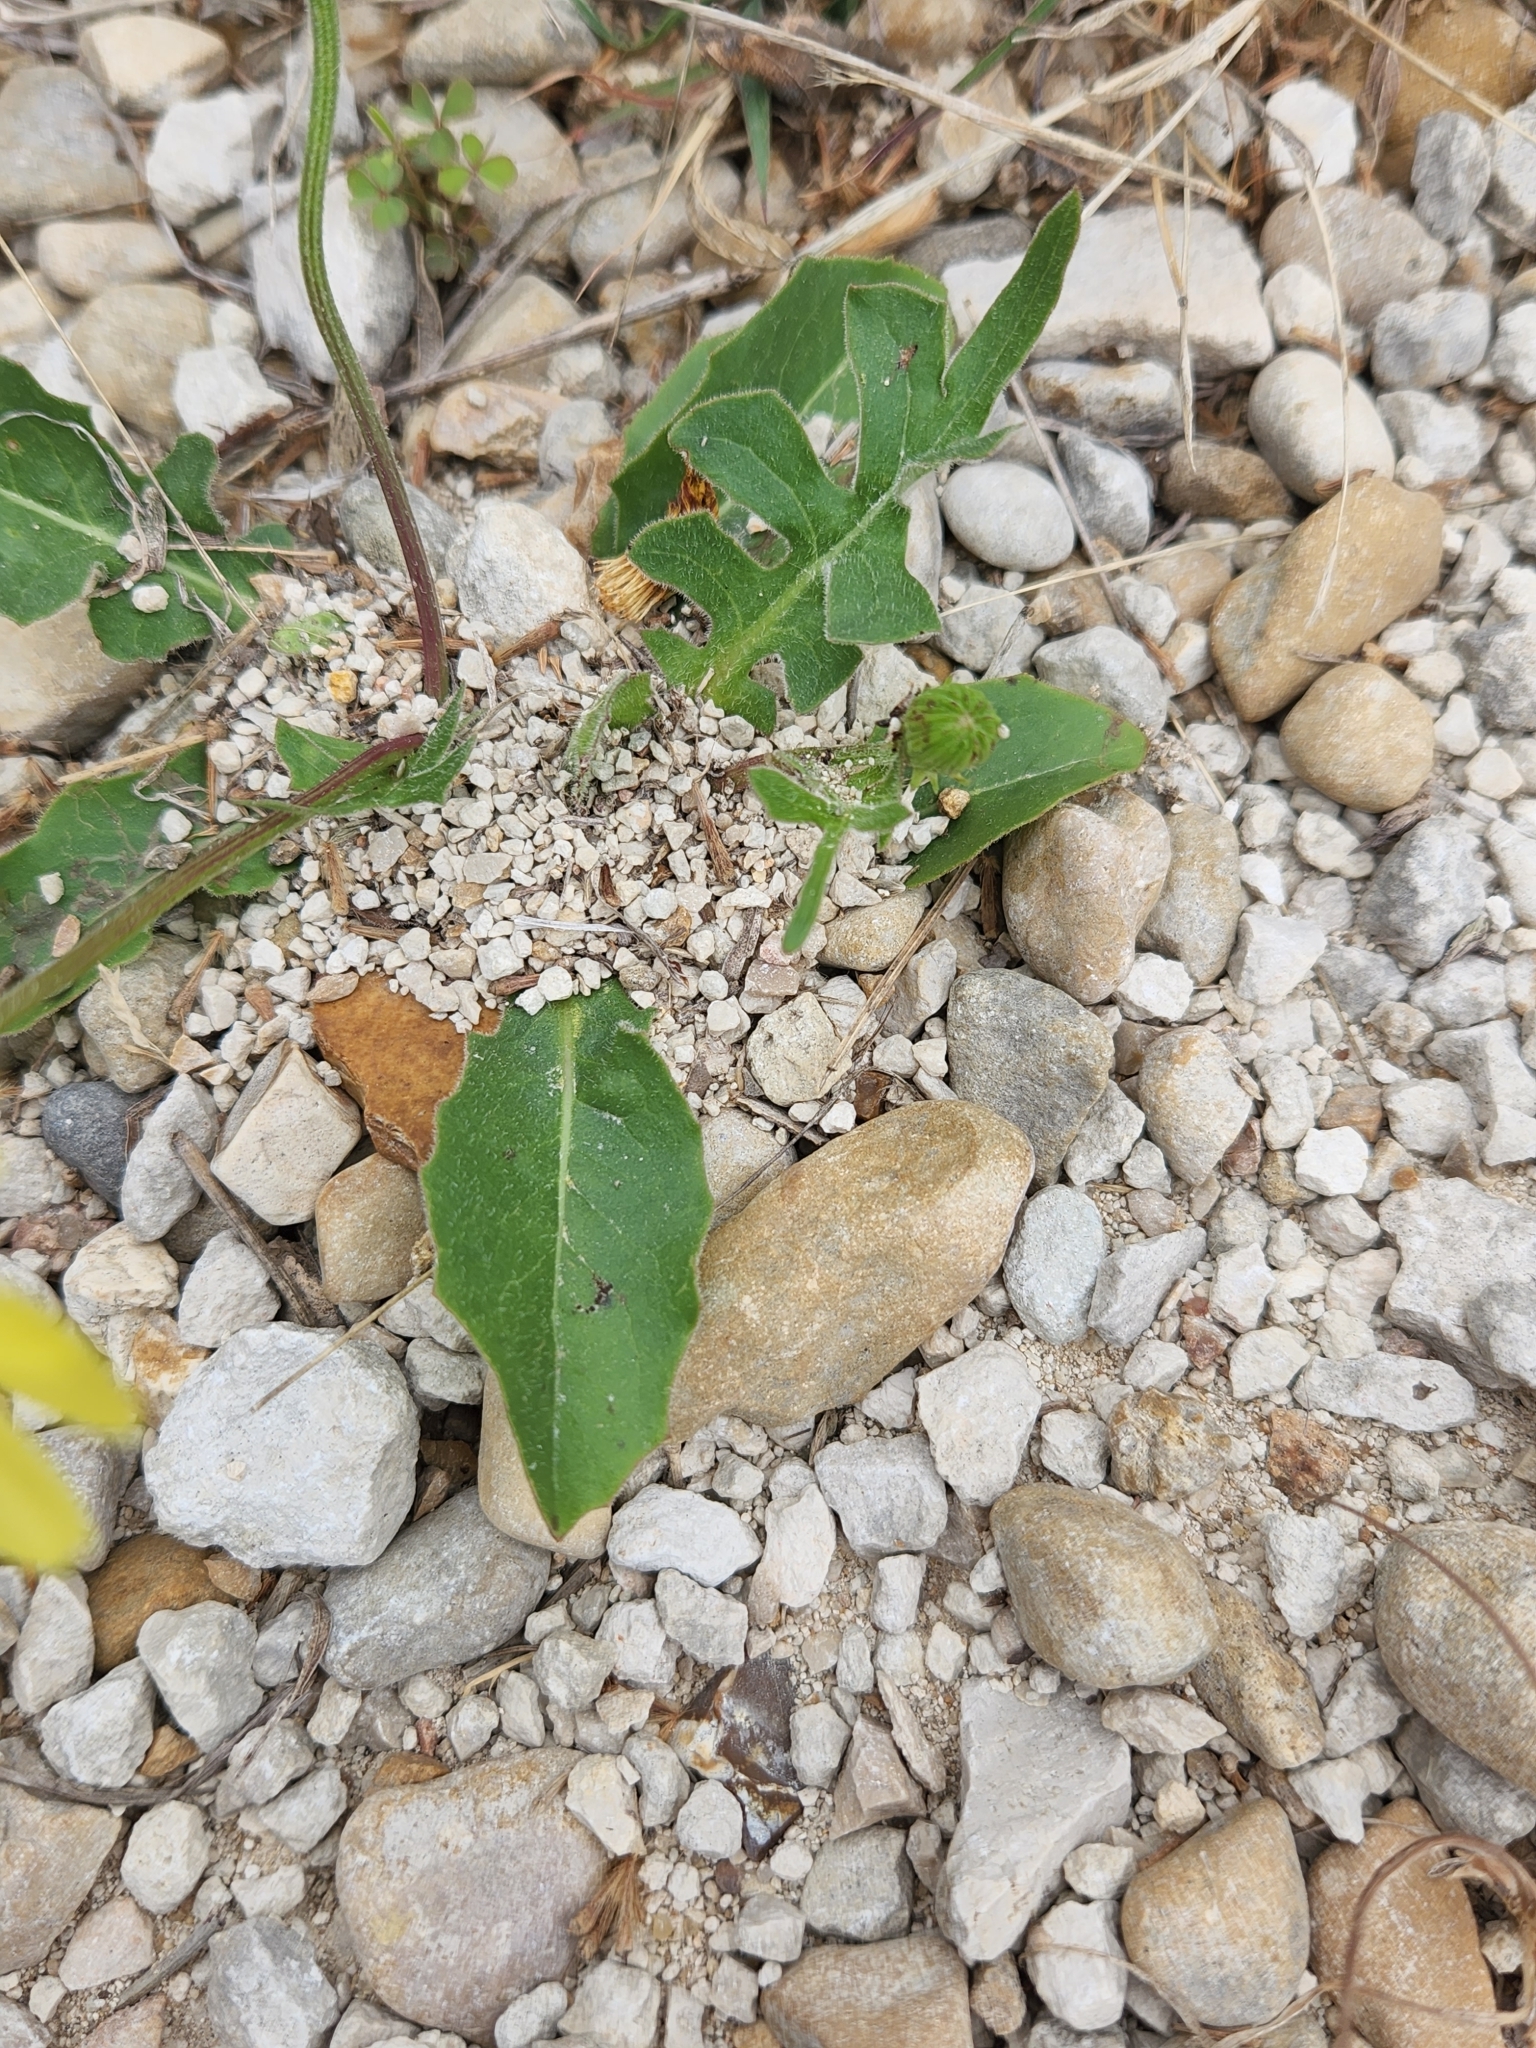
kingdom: Plantae
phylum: Tracheophyta
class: Magnoliopsida
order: Asterales
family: Asteraceae
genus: Pyrrhopappus
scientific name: Pyrrhopappus pauciflorus
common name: Texas false dandelion
